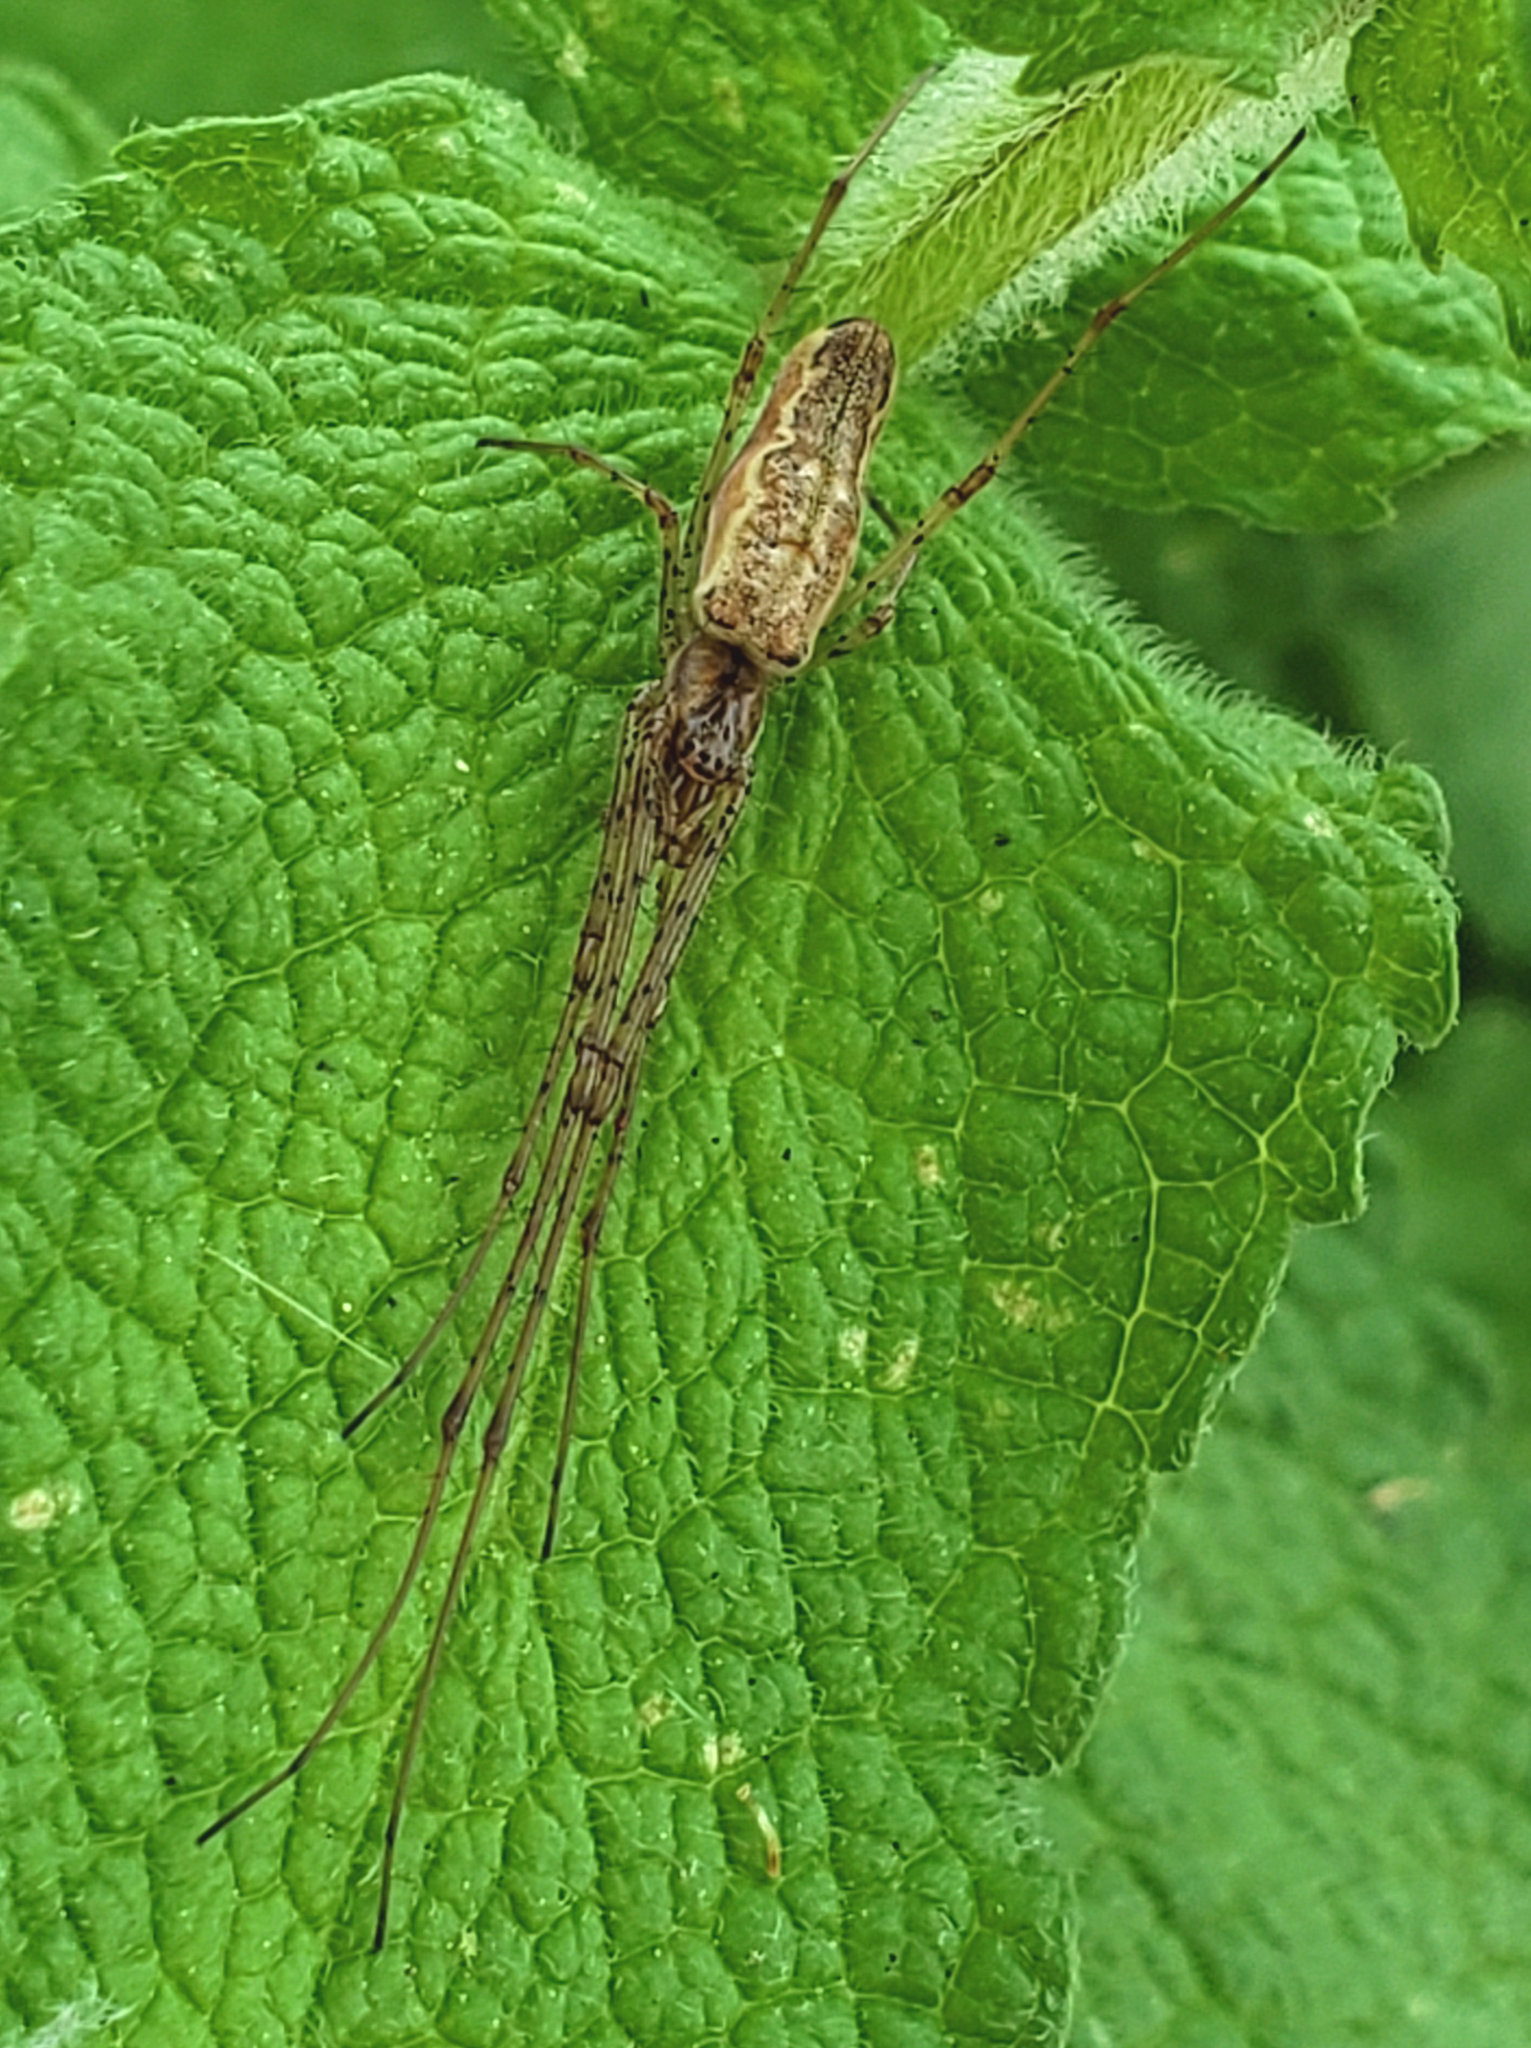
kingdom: Animalia
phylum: Arthropoda
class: Arachnida
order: Araneae
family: Tetragnathidae
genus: Tetragnatha
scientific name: Tetragnatha
